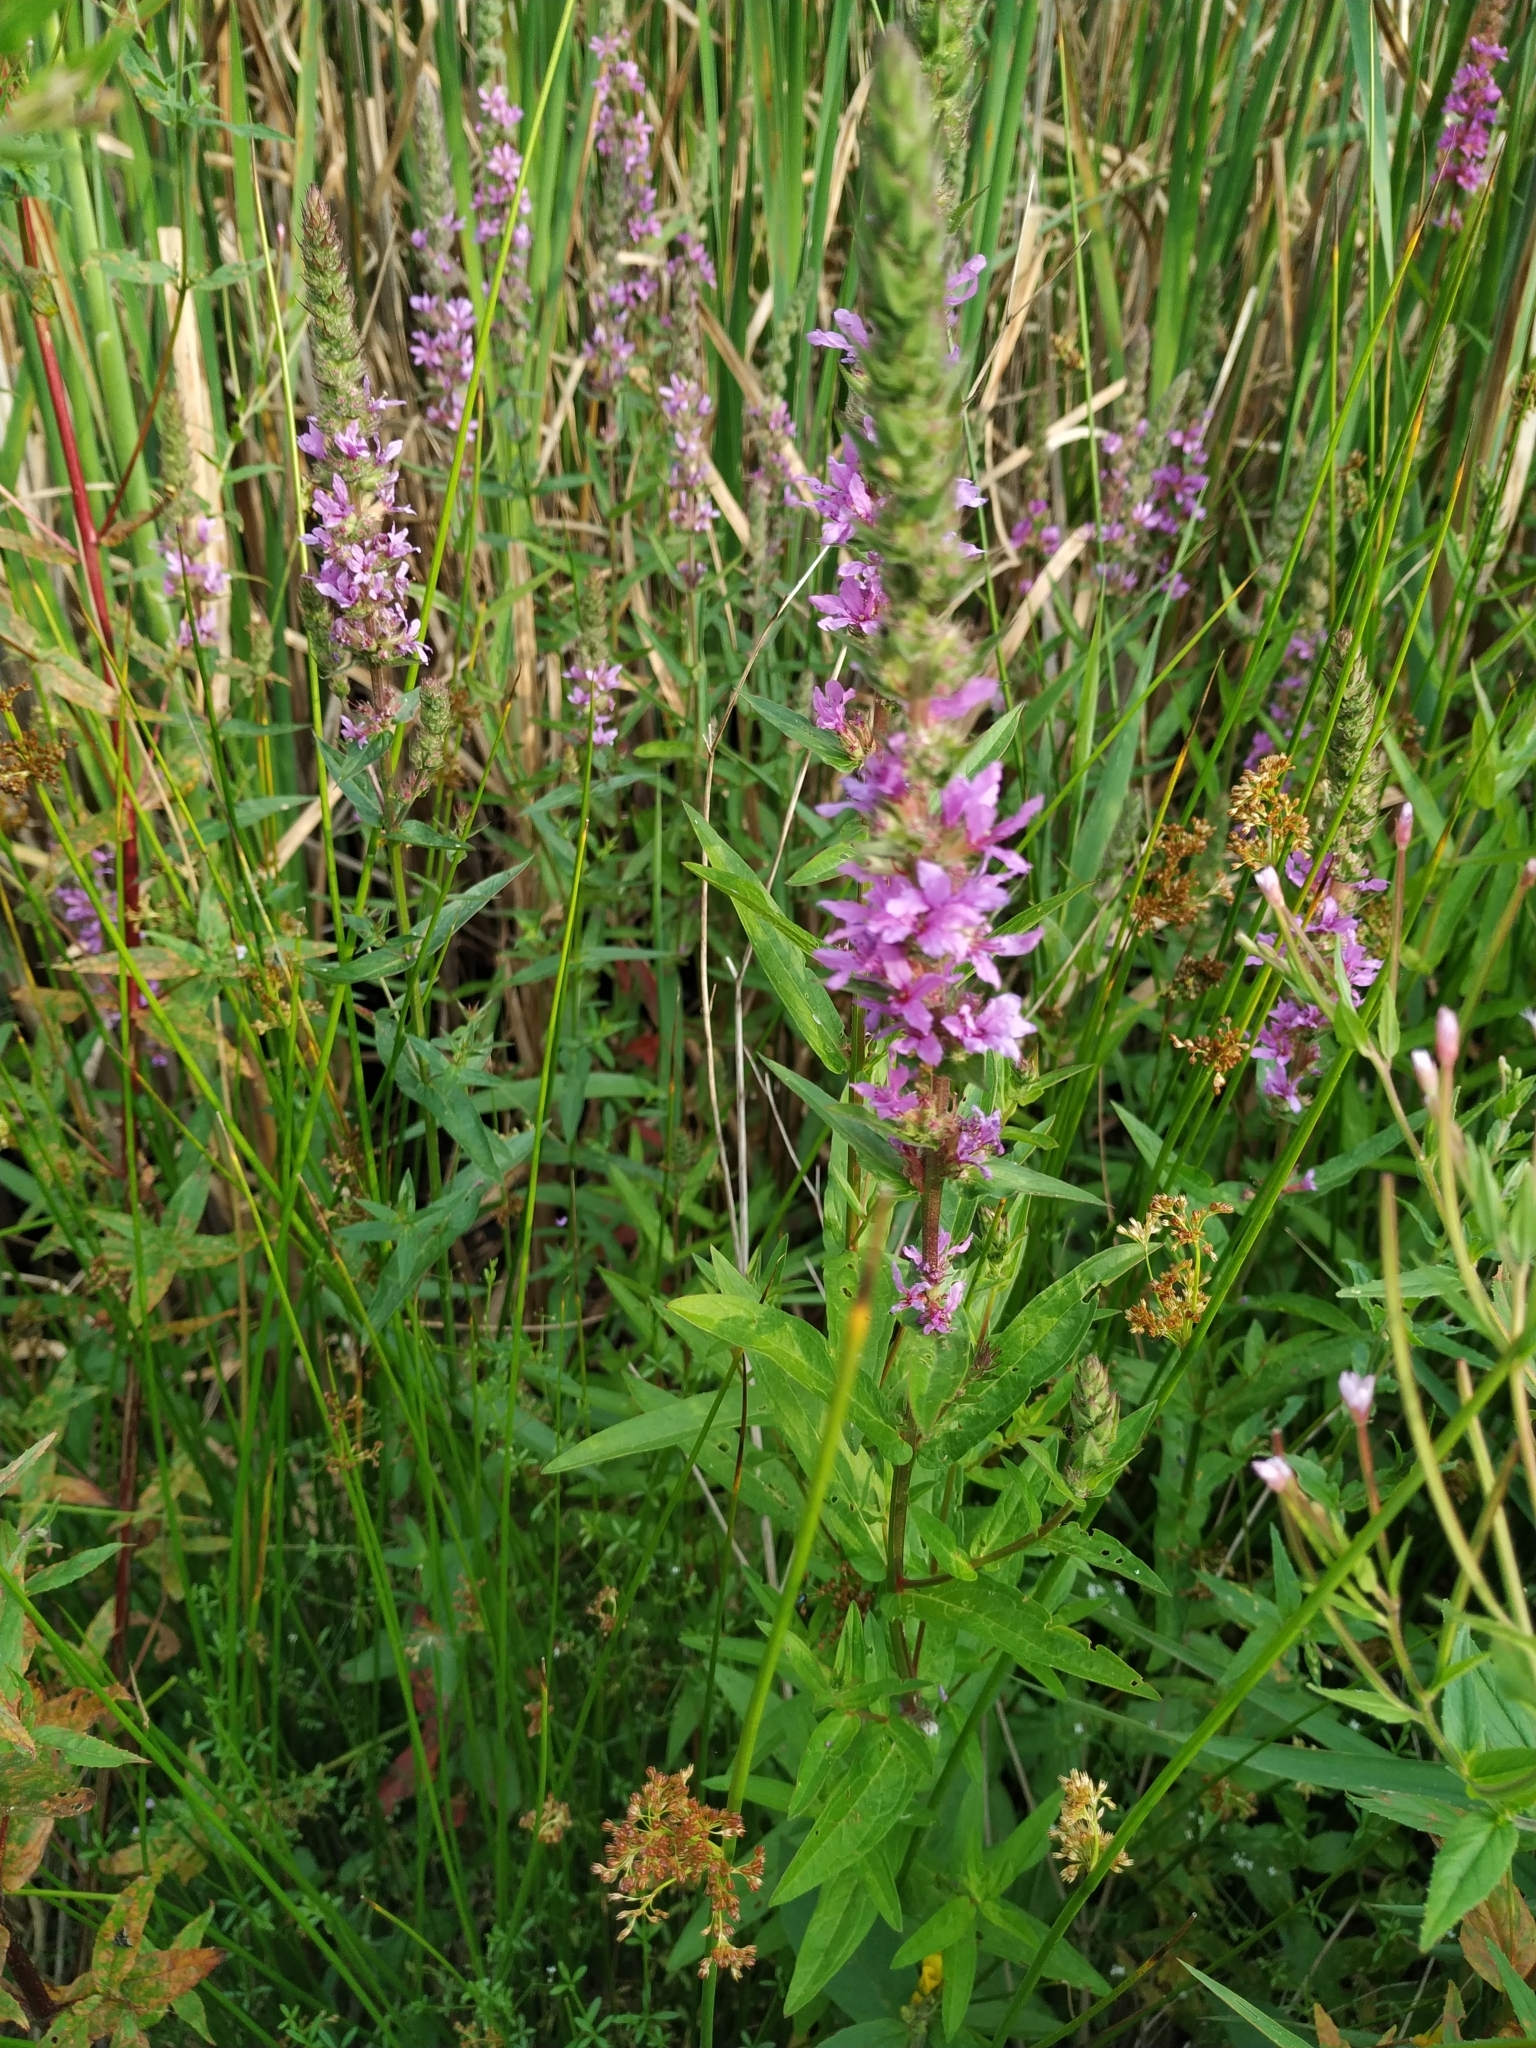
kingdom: Plantae
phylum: Tracheophyta
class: Magnoliopsida
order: Myrtales
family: Lythraceae
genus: Lythrum
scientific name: Lythrum salicaria
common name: Purple loosestrife
